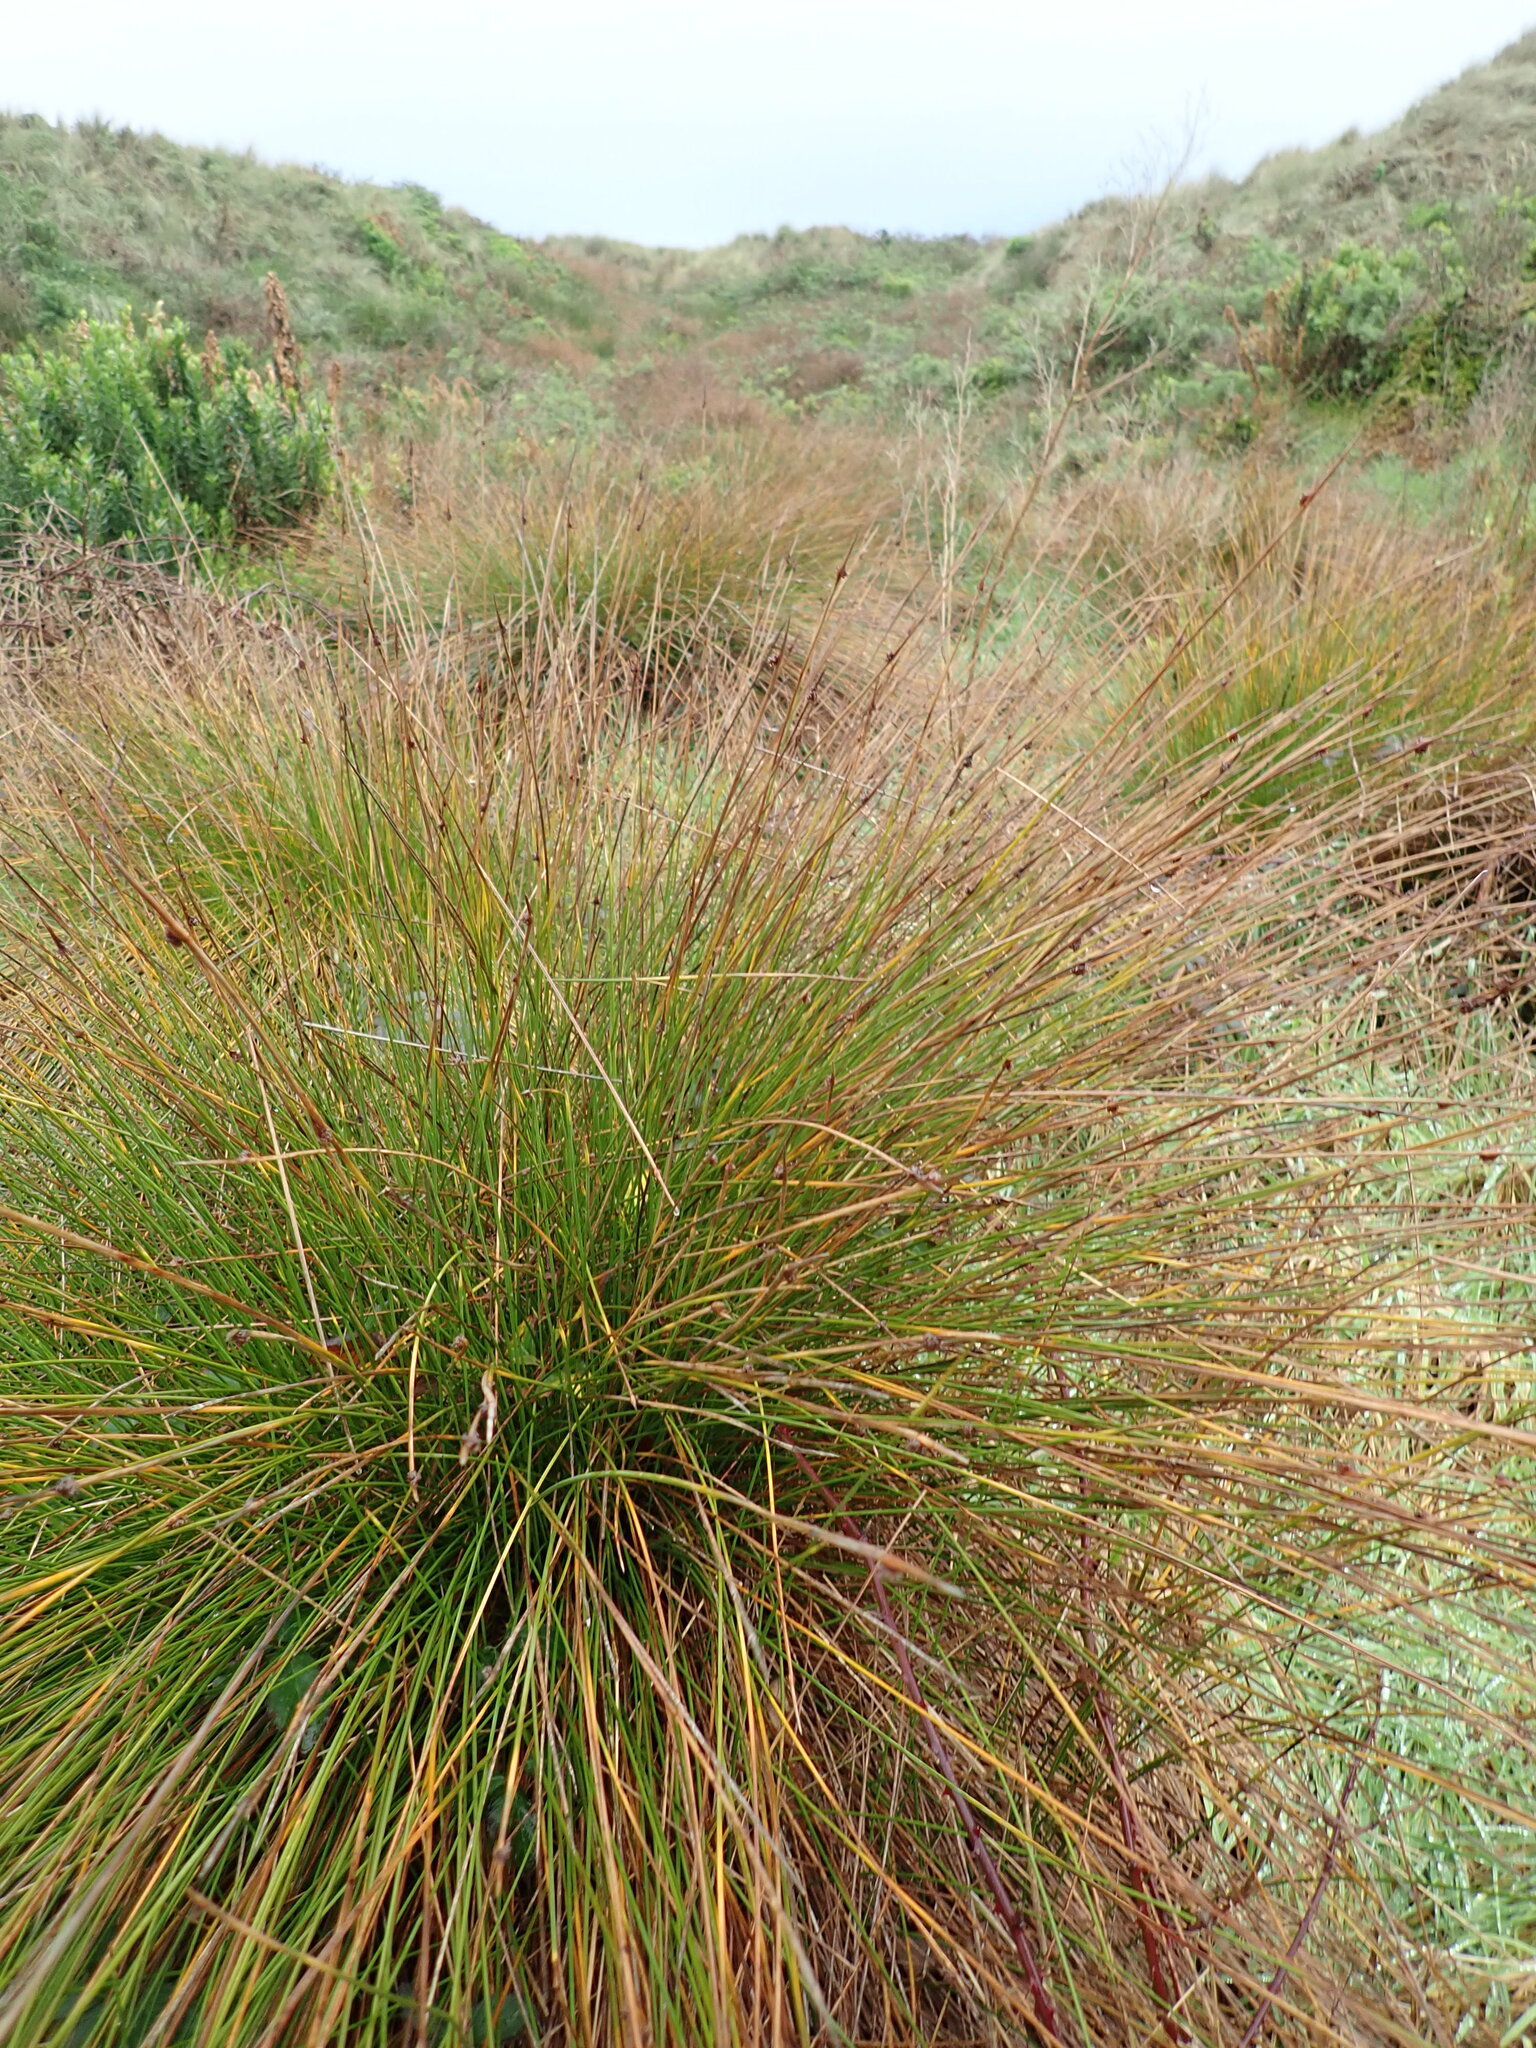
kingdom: Plantae
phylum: Tracheophyta
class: Liliopsida
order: Poales
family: Cyperaceae
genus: Ficinia
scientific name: Ficinia nodosa
